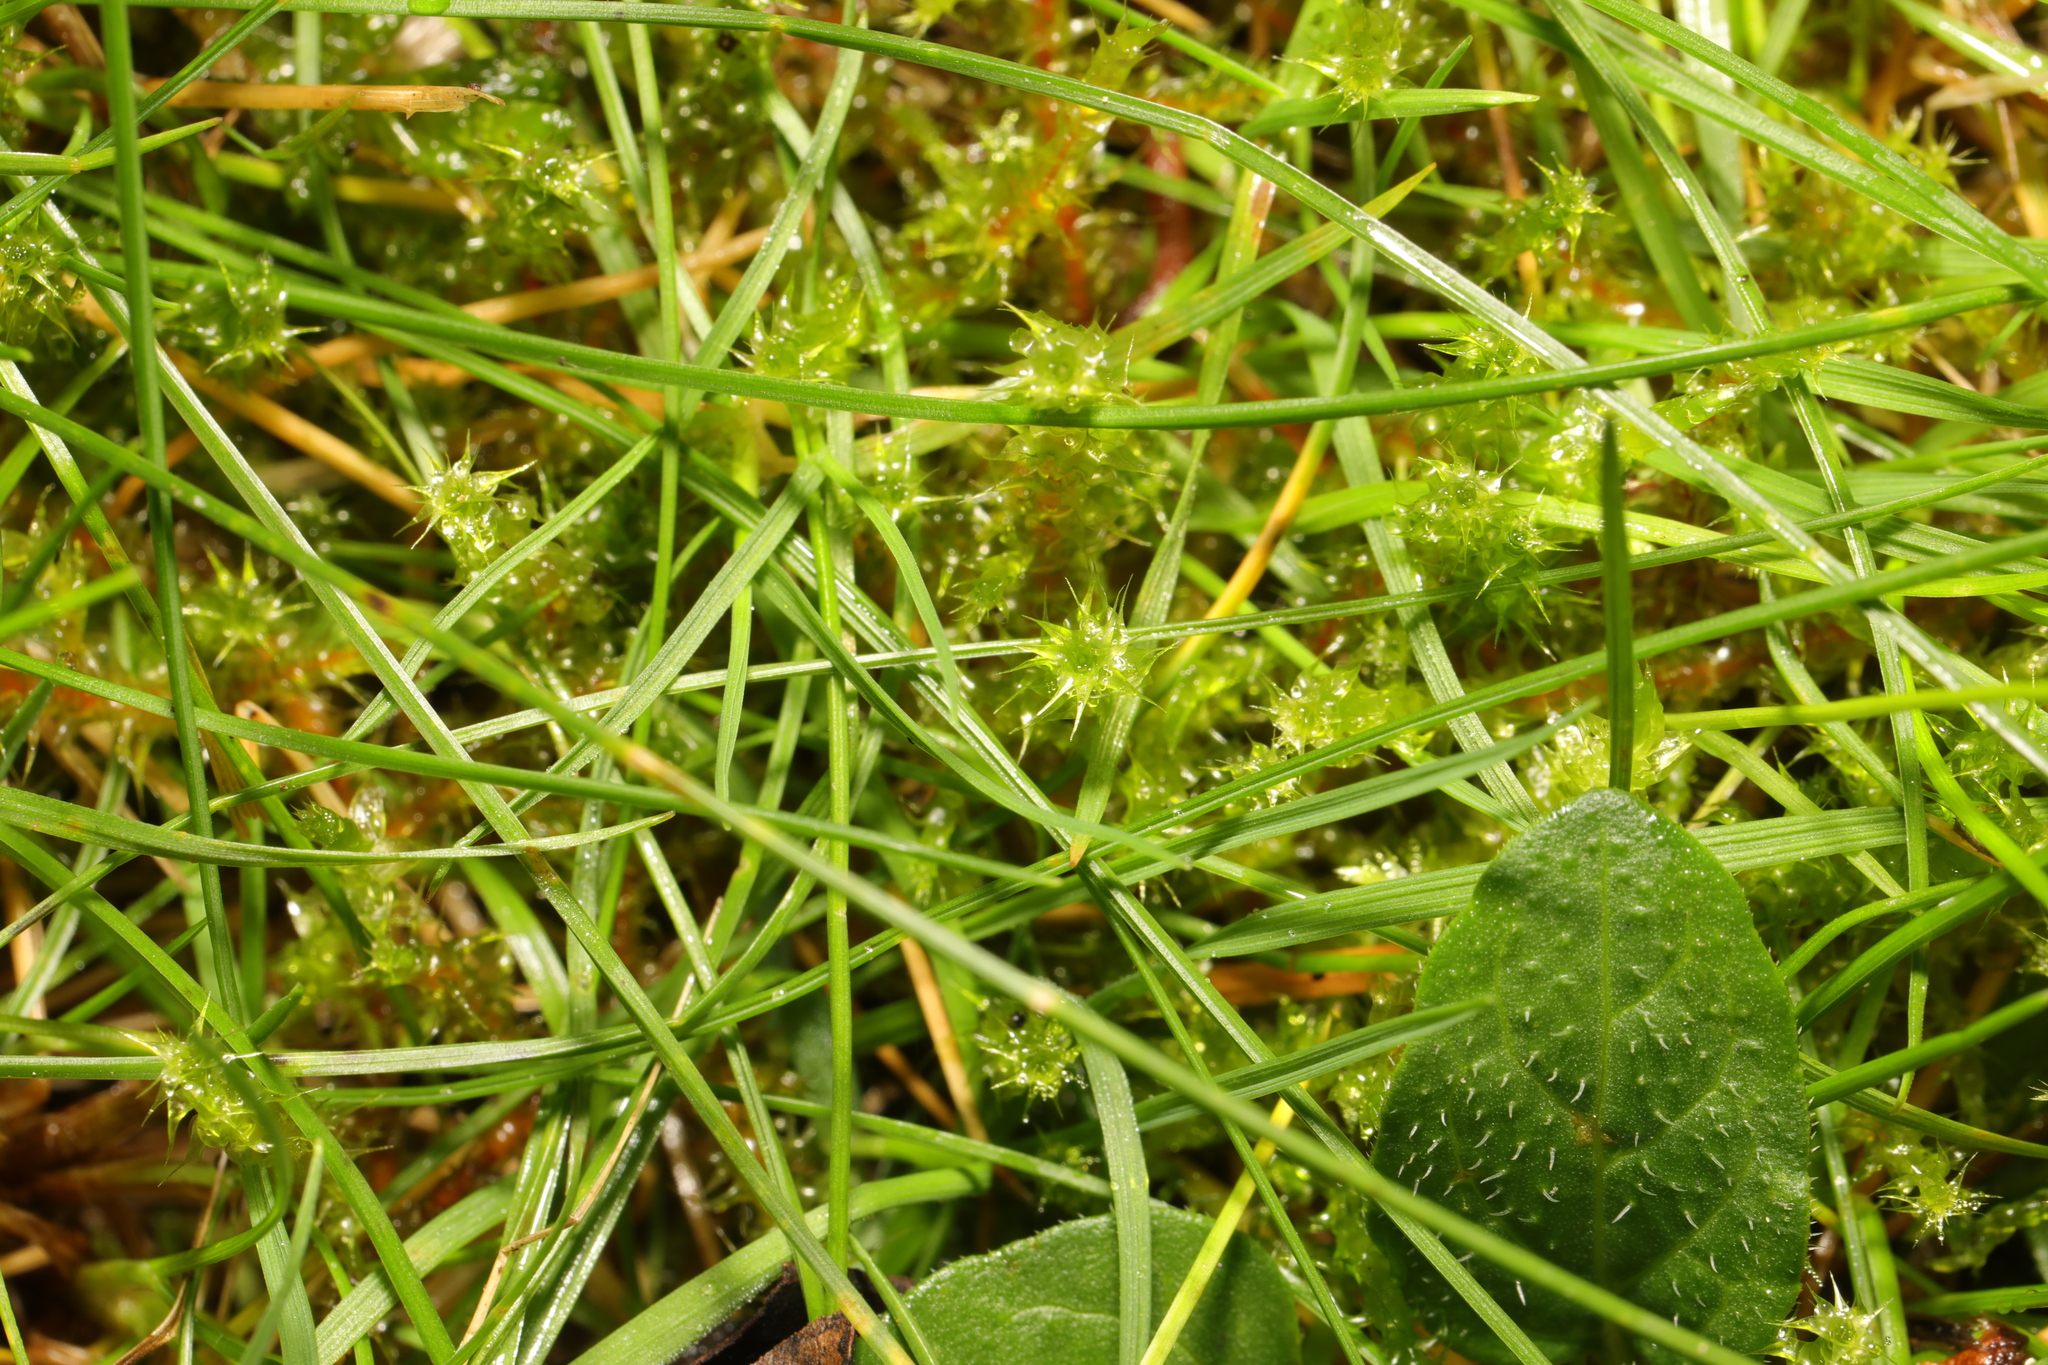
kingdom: Plantae
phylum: Bryophyta
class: Bryopsida
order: Hypnales
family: Hylocomiaceae
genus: Rhytidiadelphus
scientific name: Rhytidiadelphus squarrosus
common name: Springy turf-moss
